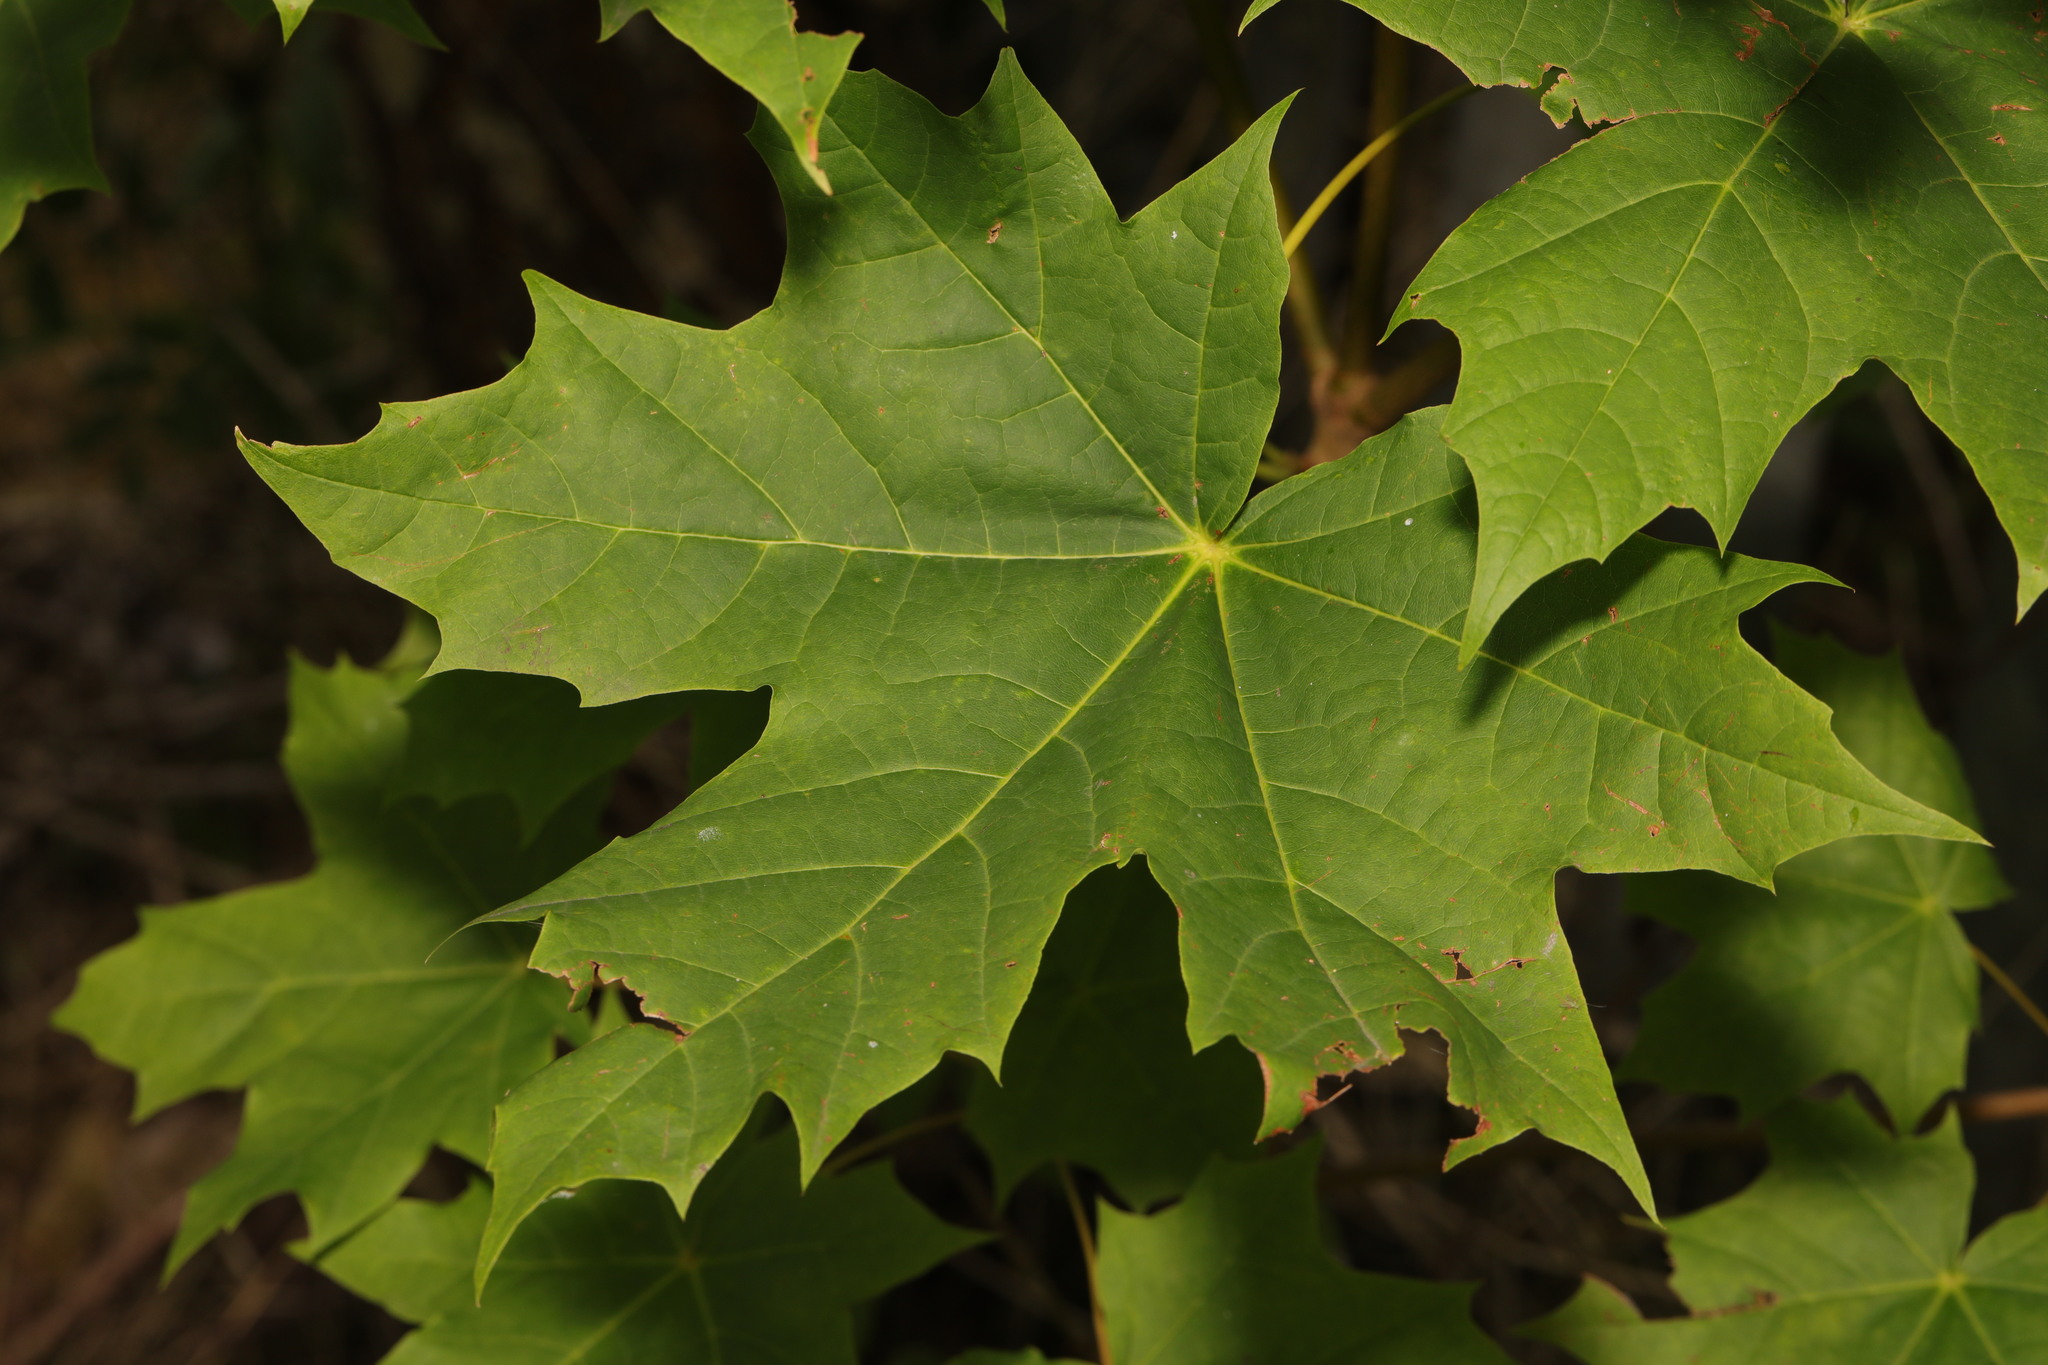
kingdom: Plantae
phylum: Tracheophyta
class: Magnoliopsida
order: Sapindales
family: Sapindaceae
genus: Acer
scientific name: Acer platanoides
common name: Norway maple
